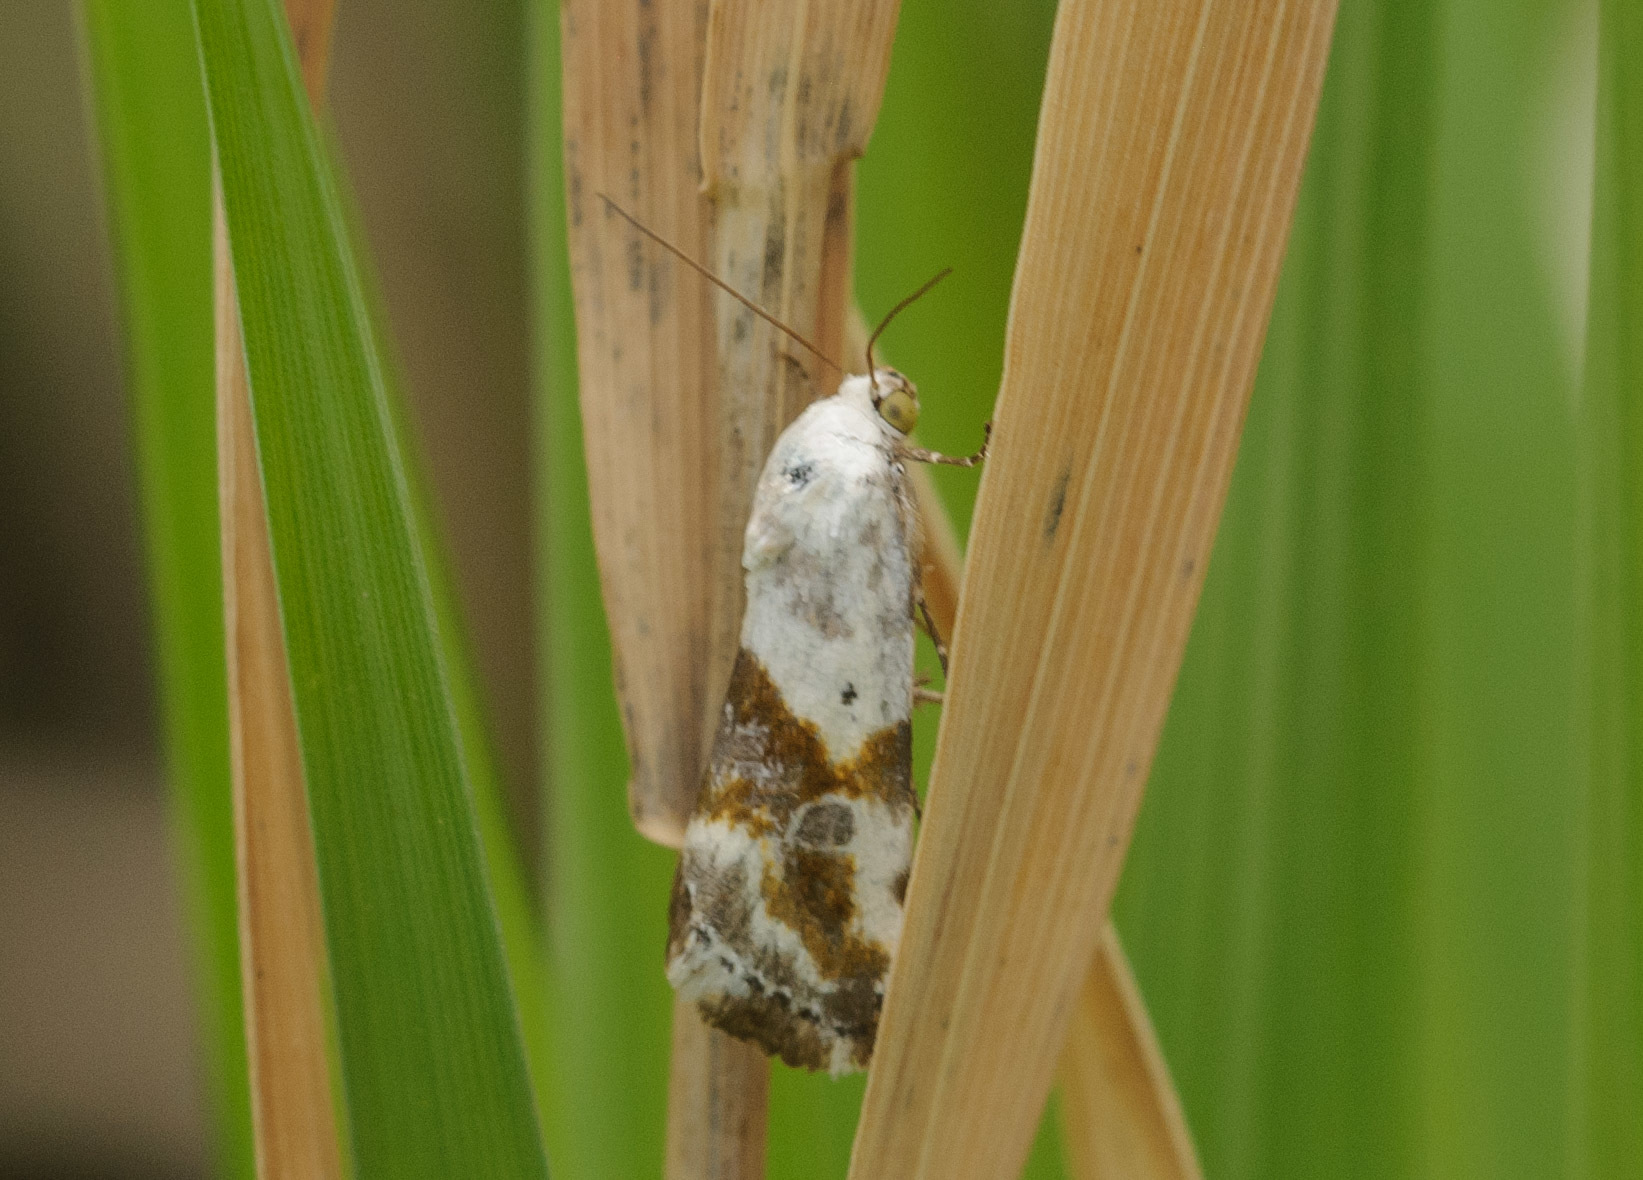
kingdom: Animalia
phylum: Arthropoda
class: Insecta
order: Lepidoptera
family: Noctuidae
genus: Acontia
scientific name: Acontia candefacta
